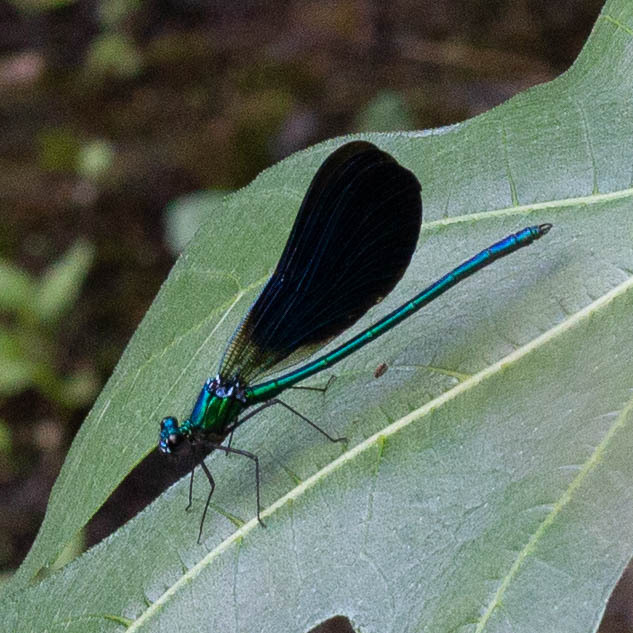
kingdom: Animalia
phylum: Arthropoda
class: Insecta
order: Odonata
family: Calopterygidae
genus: Calopteryx
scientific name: Calopteryx virgo
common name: Beautiful demoiselle
